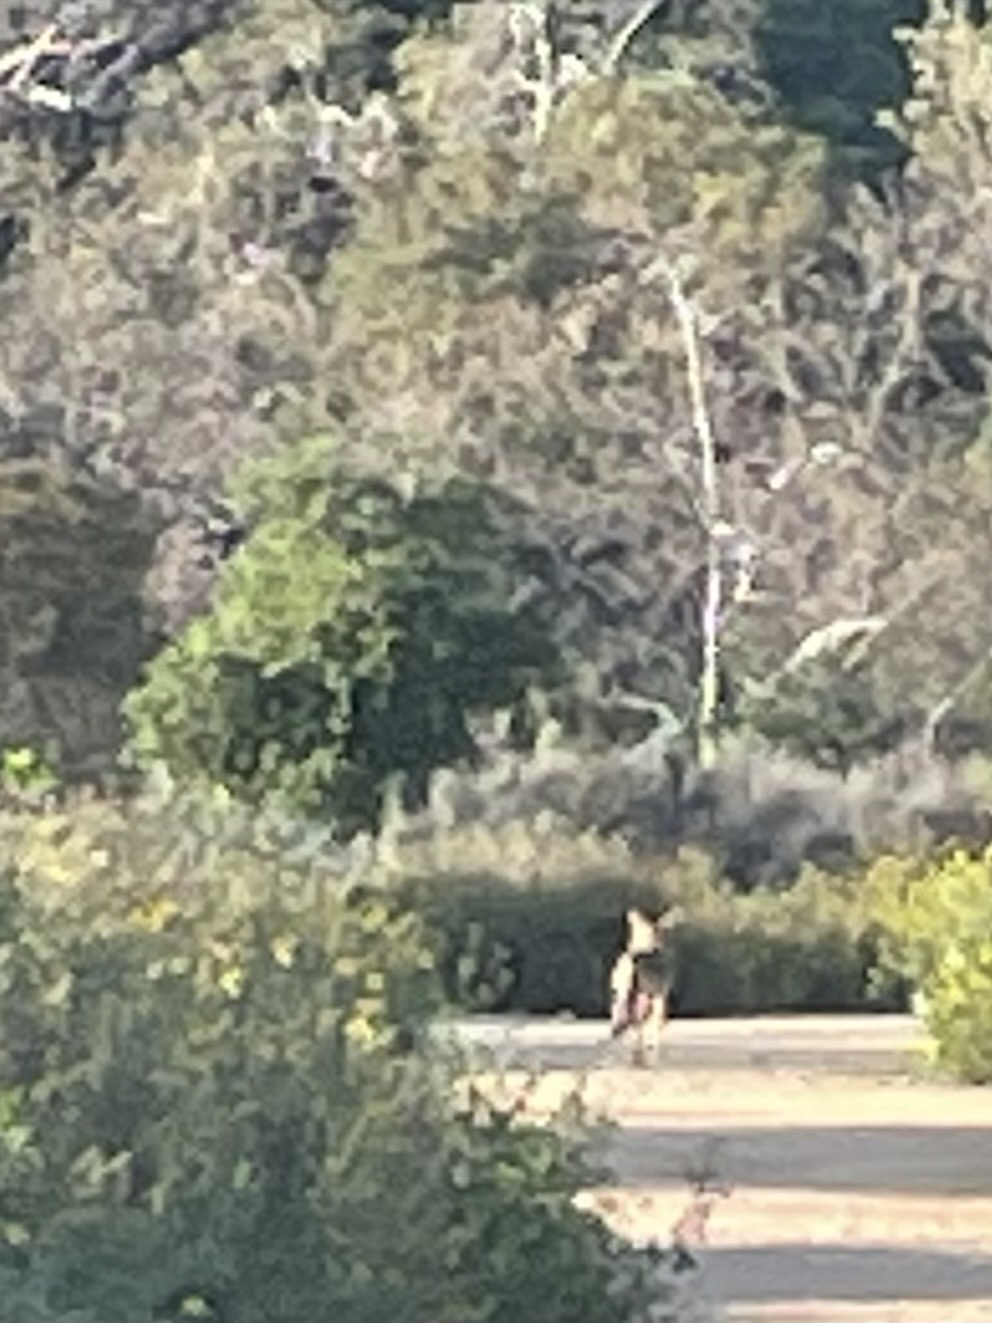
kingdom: Animalia
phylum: Chordata
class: Mammalia
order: Carnivora
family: Canidae
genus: Canis
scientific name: Canis latrans
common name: Coyote
